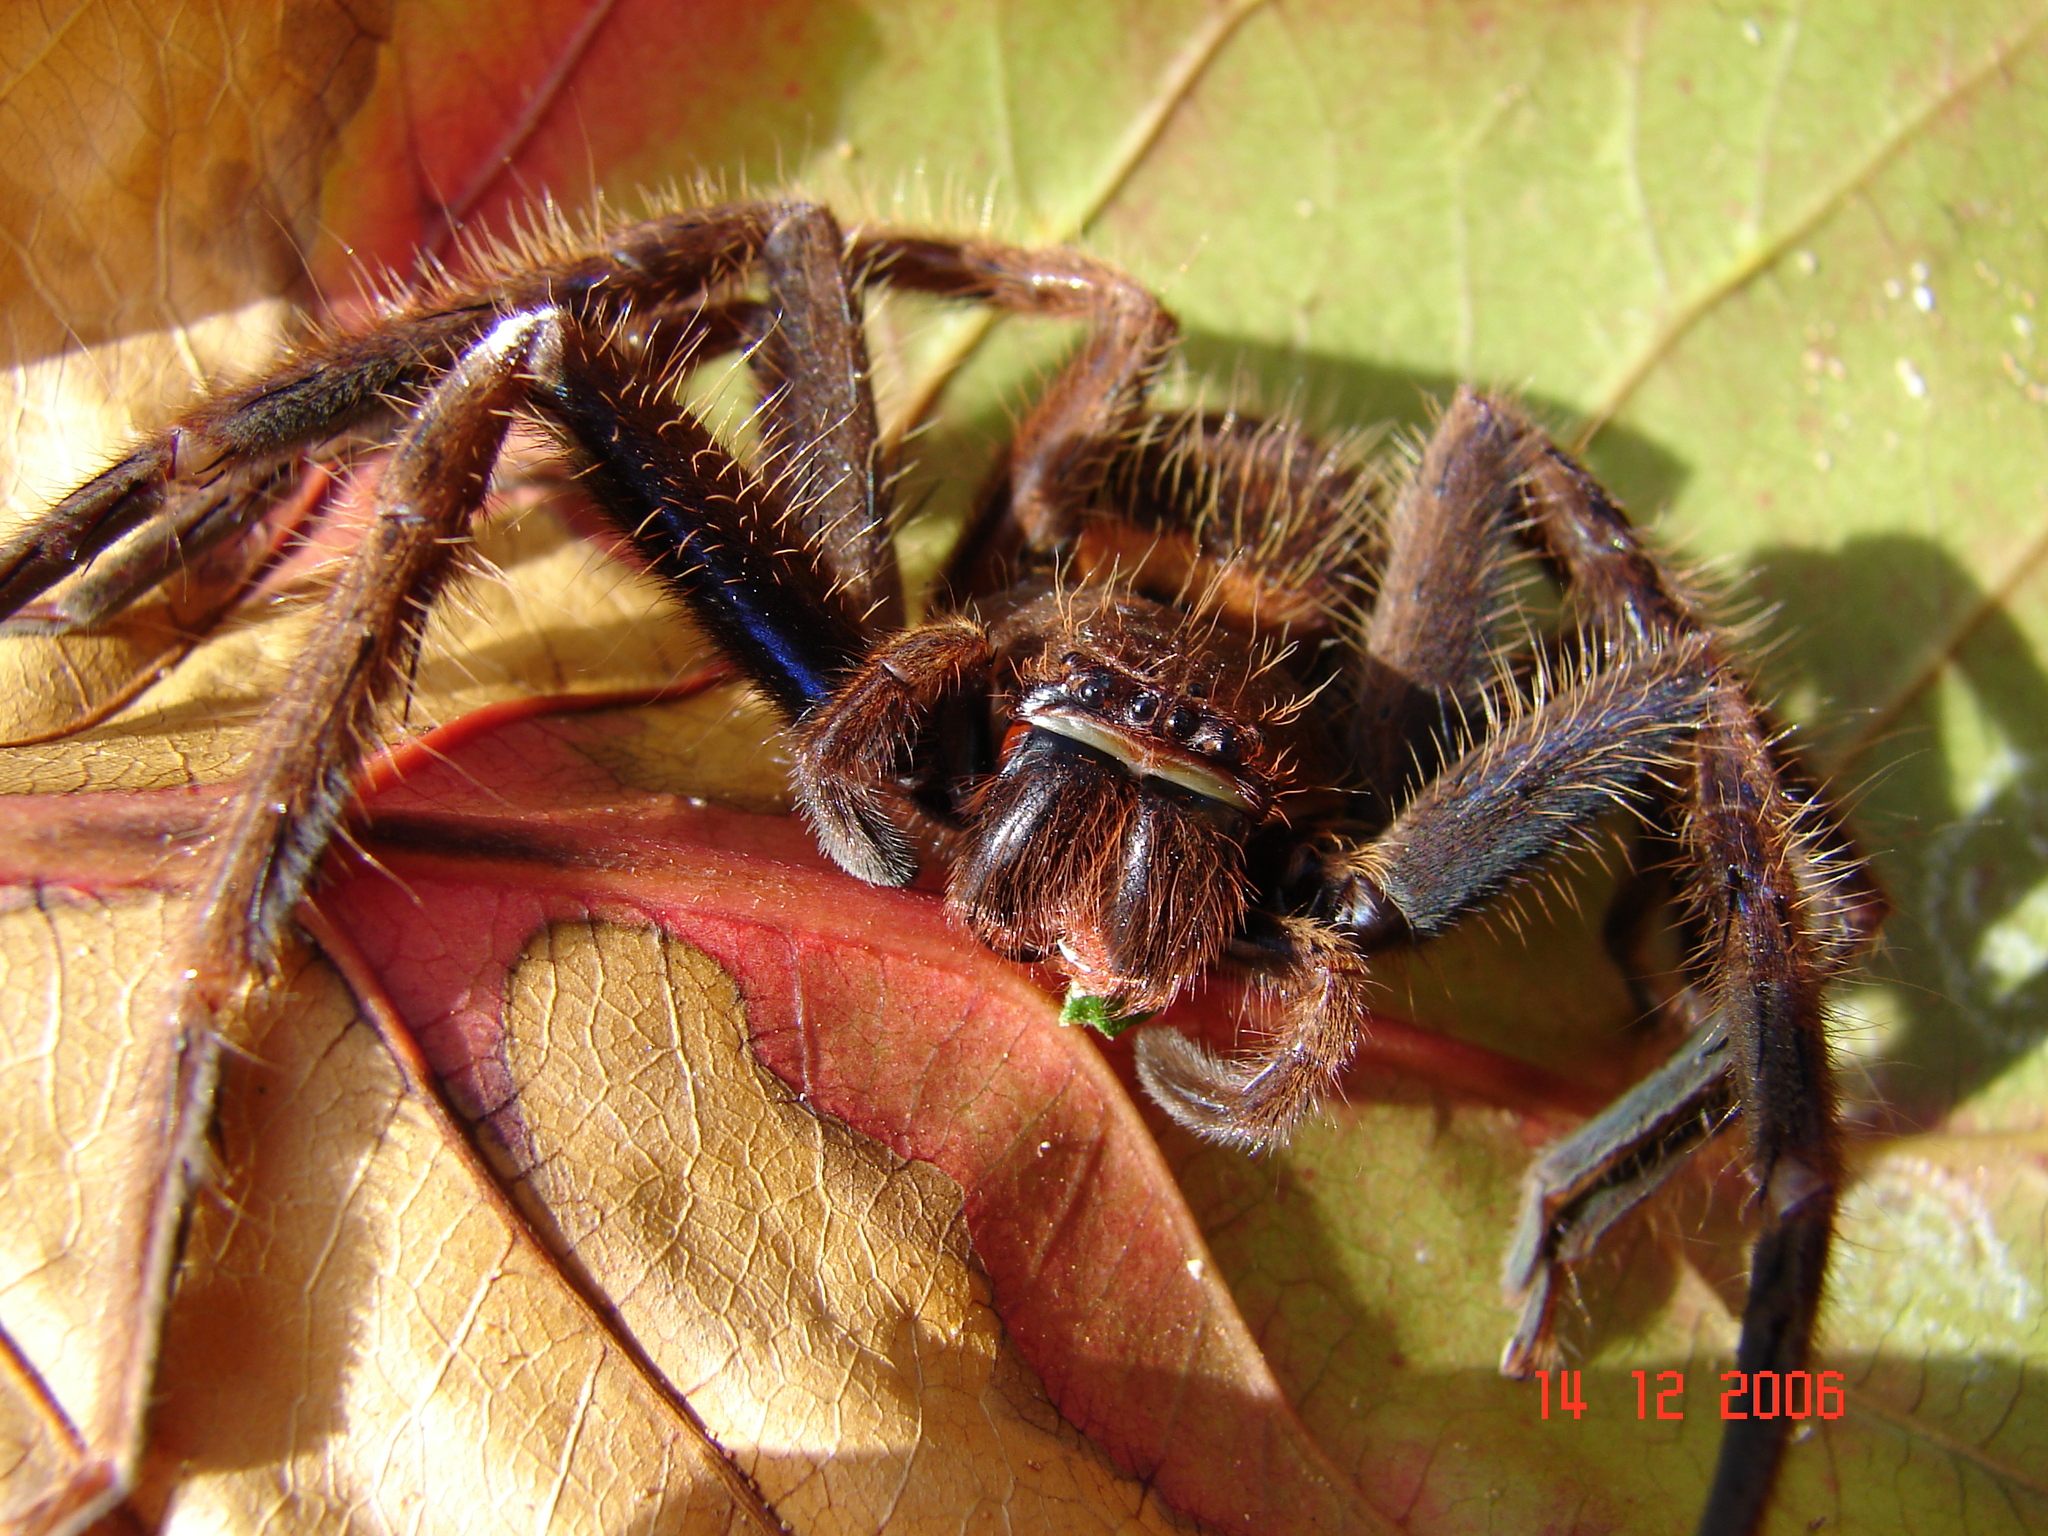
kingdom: Animalia
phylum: Arthropoda
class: Arachnida
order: Araneae
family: Sparassidae
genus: Damastes
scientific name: Damastes validus
